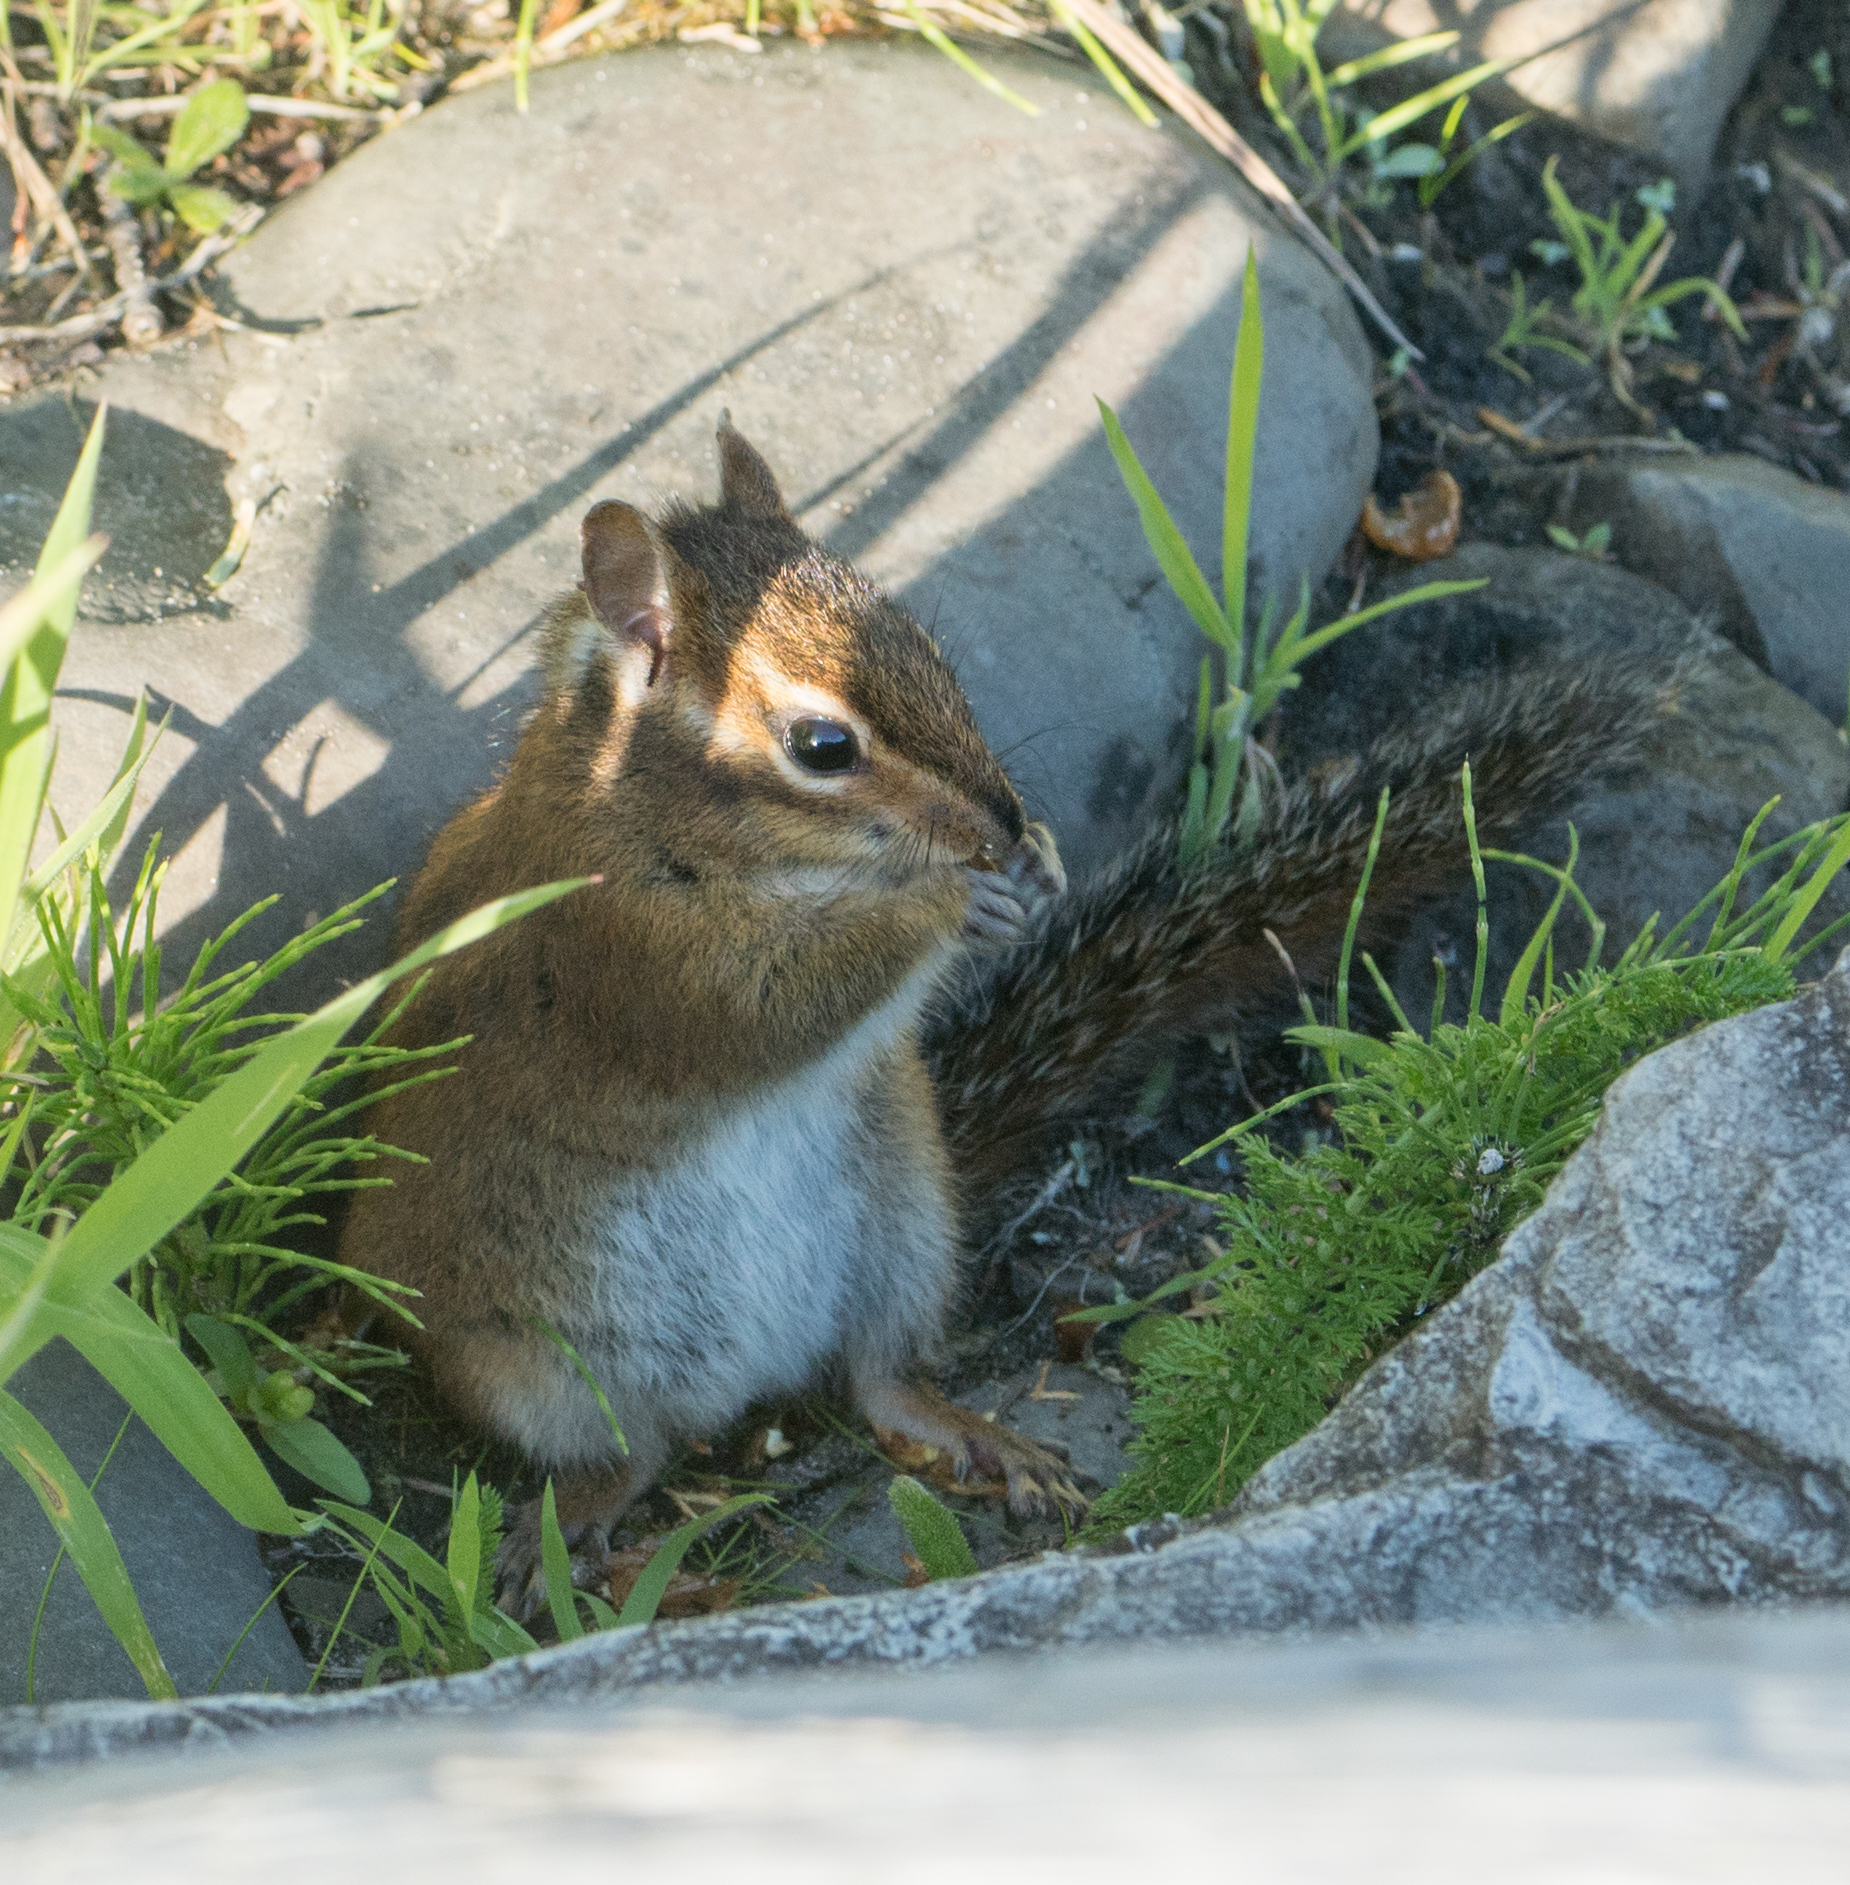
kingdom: Animalia
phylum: Chordata
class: Mammalia
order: Rodentia
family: Sciuridae
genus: Tamias
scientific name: Tamias townsendii
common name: Townsend's chipmunk
